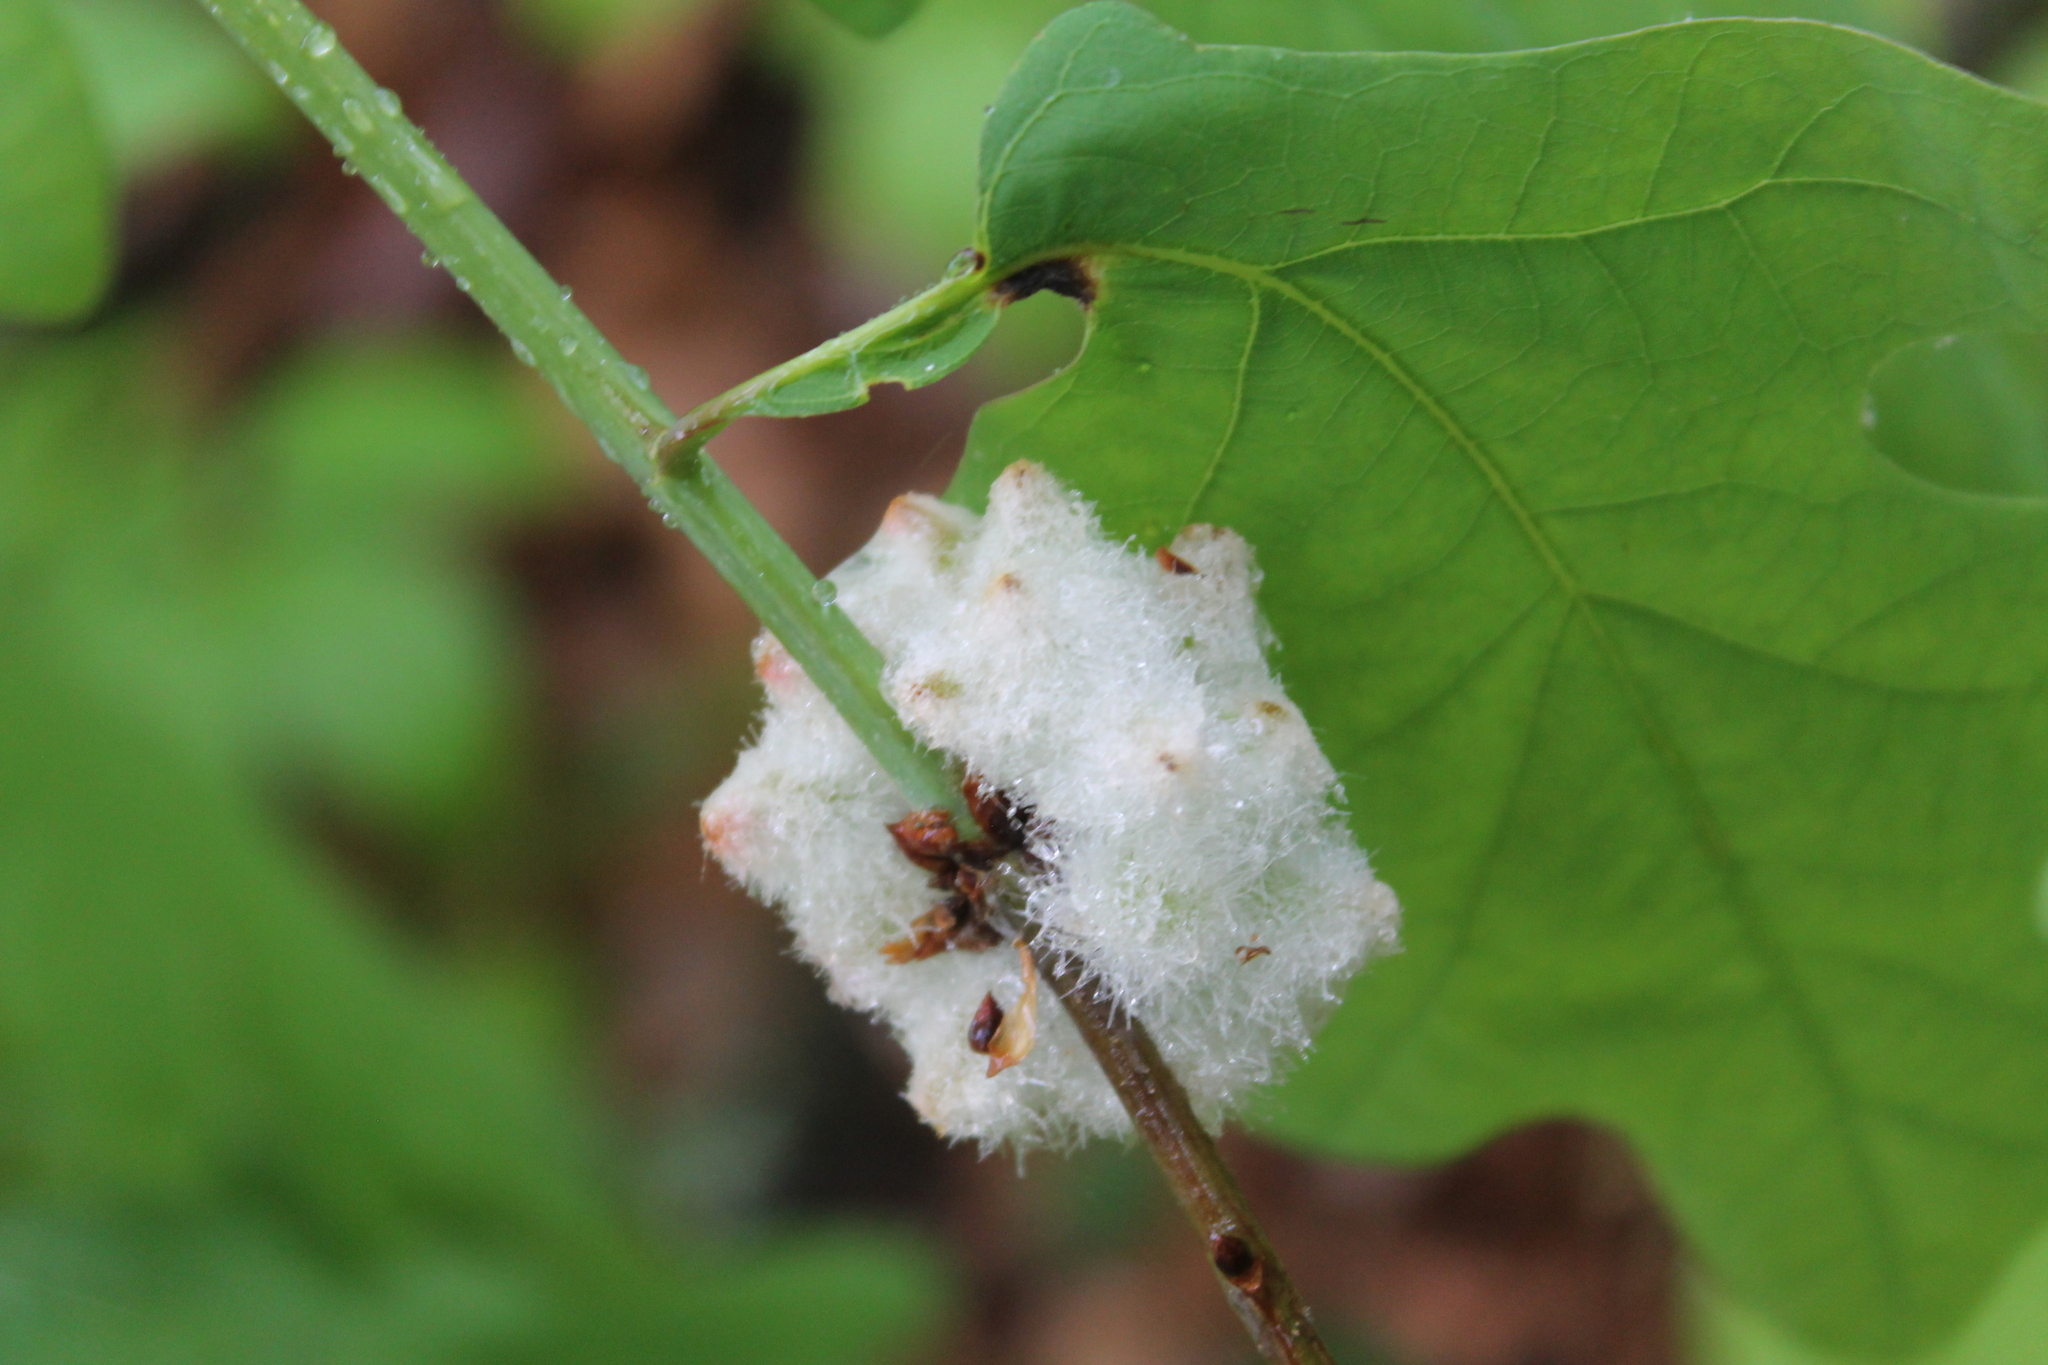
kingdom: Animalia
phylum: Arthropoda
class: Insecta
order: Hymenoptera
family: Cynipidae
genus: Callirhytis
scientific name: Callirhytis
